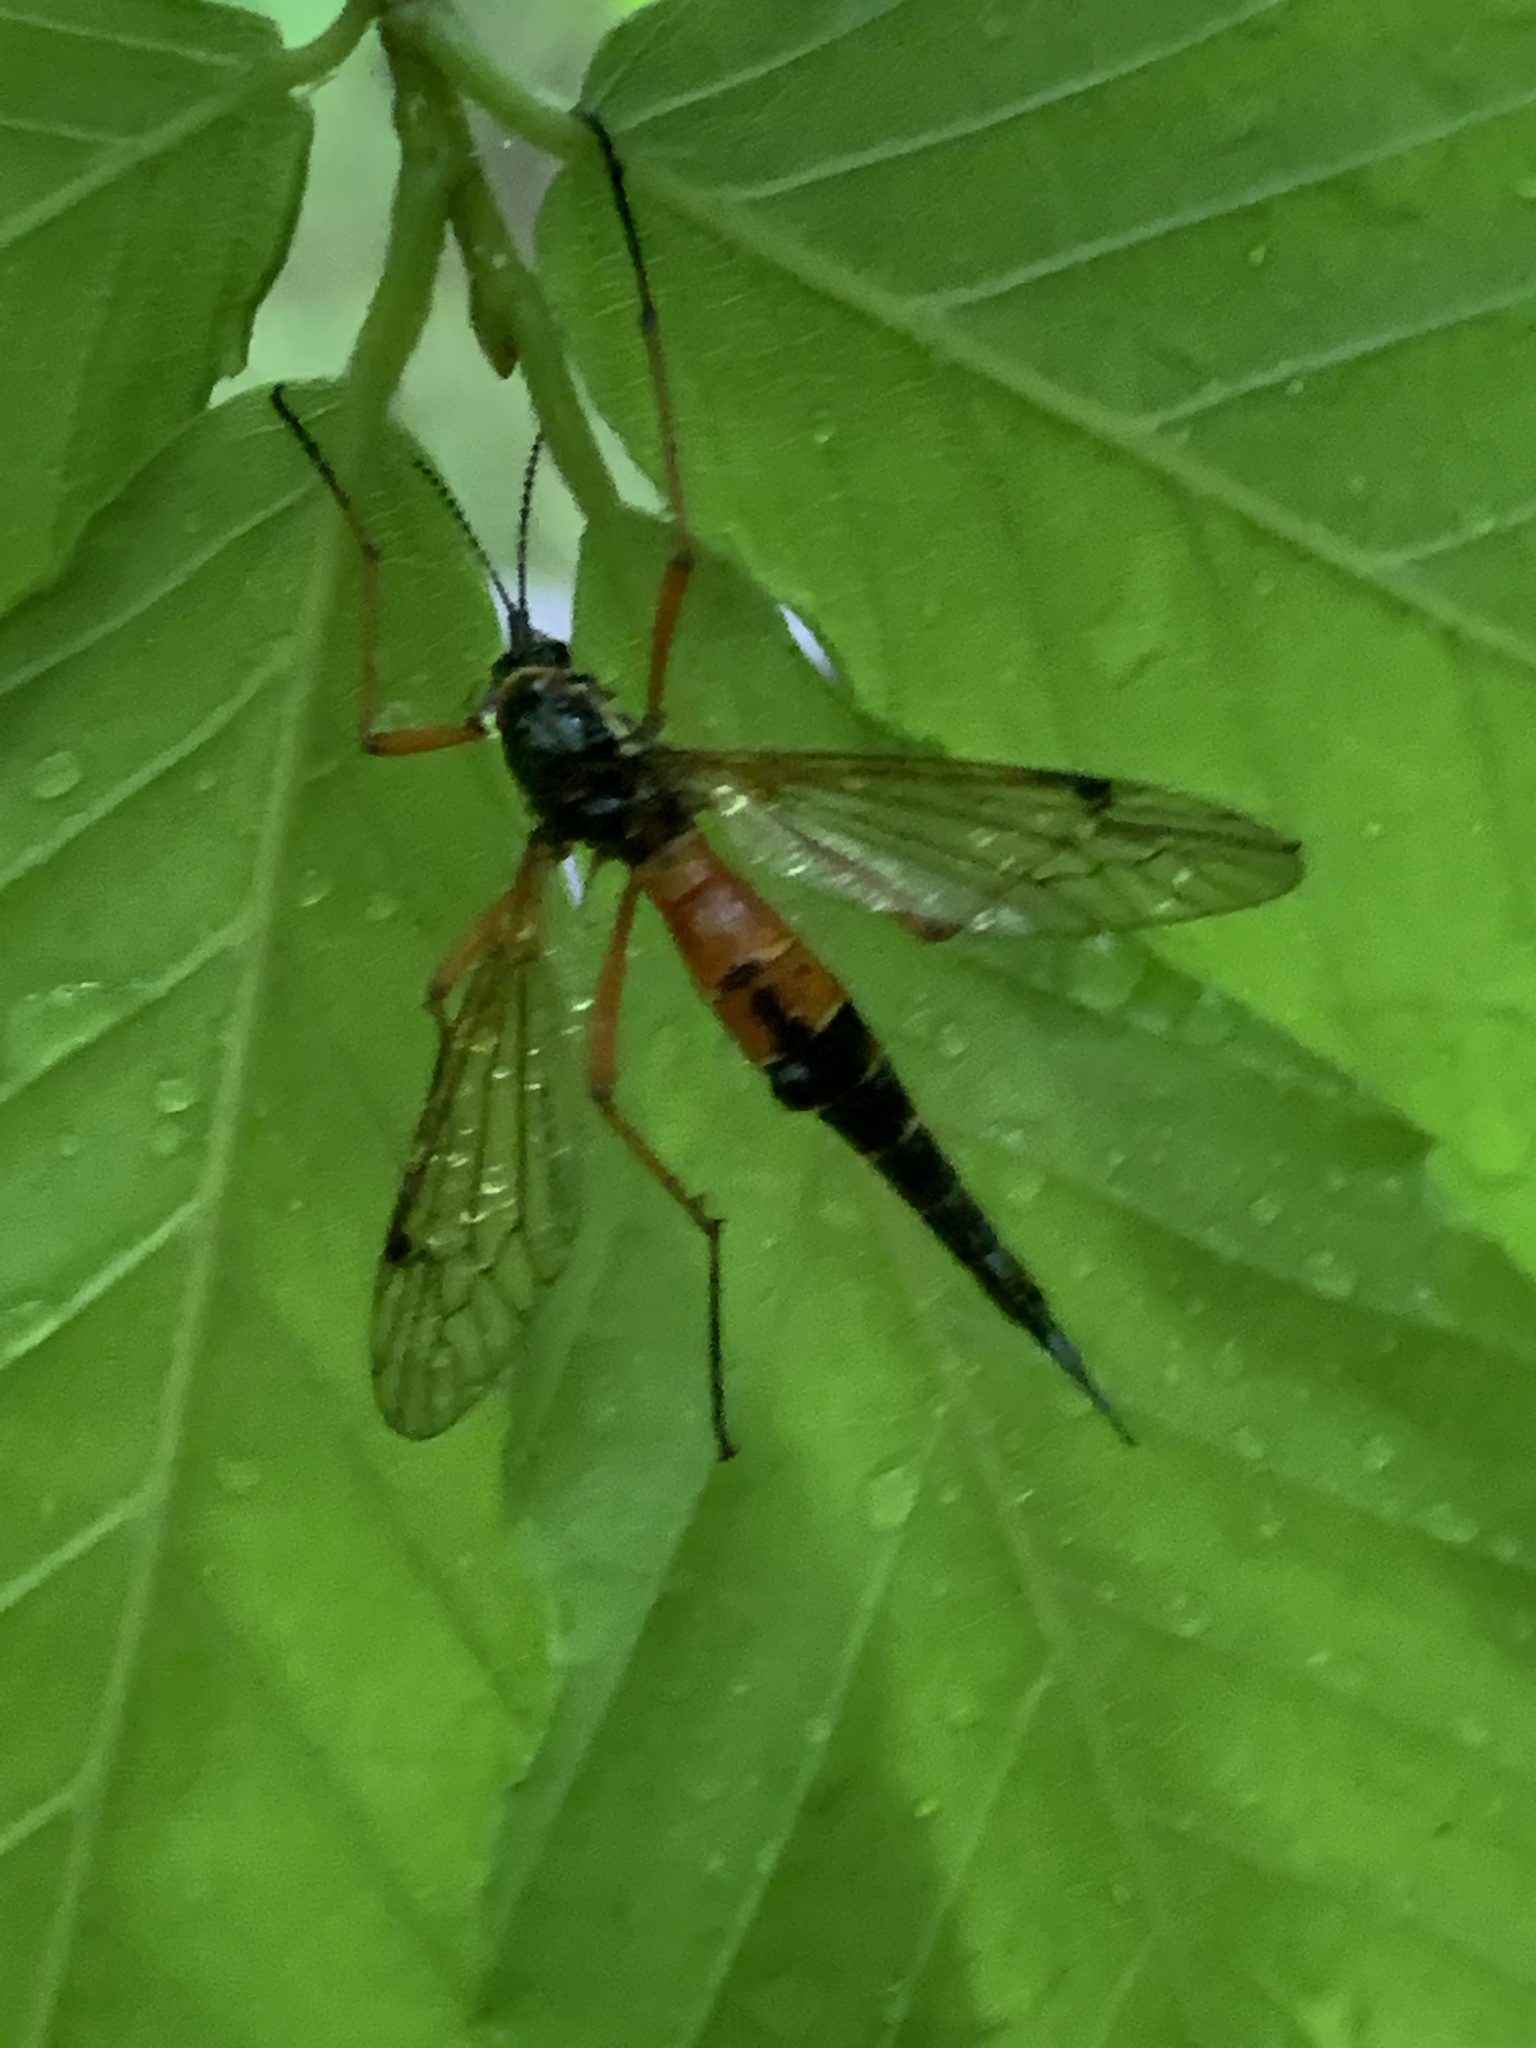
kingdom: Animalia
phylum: Arthropoda
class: Insecta
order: Diptera
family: Tipulidae
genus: Tanyptera
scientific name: Tanyptera dorsalis
